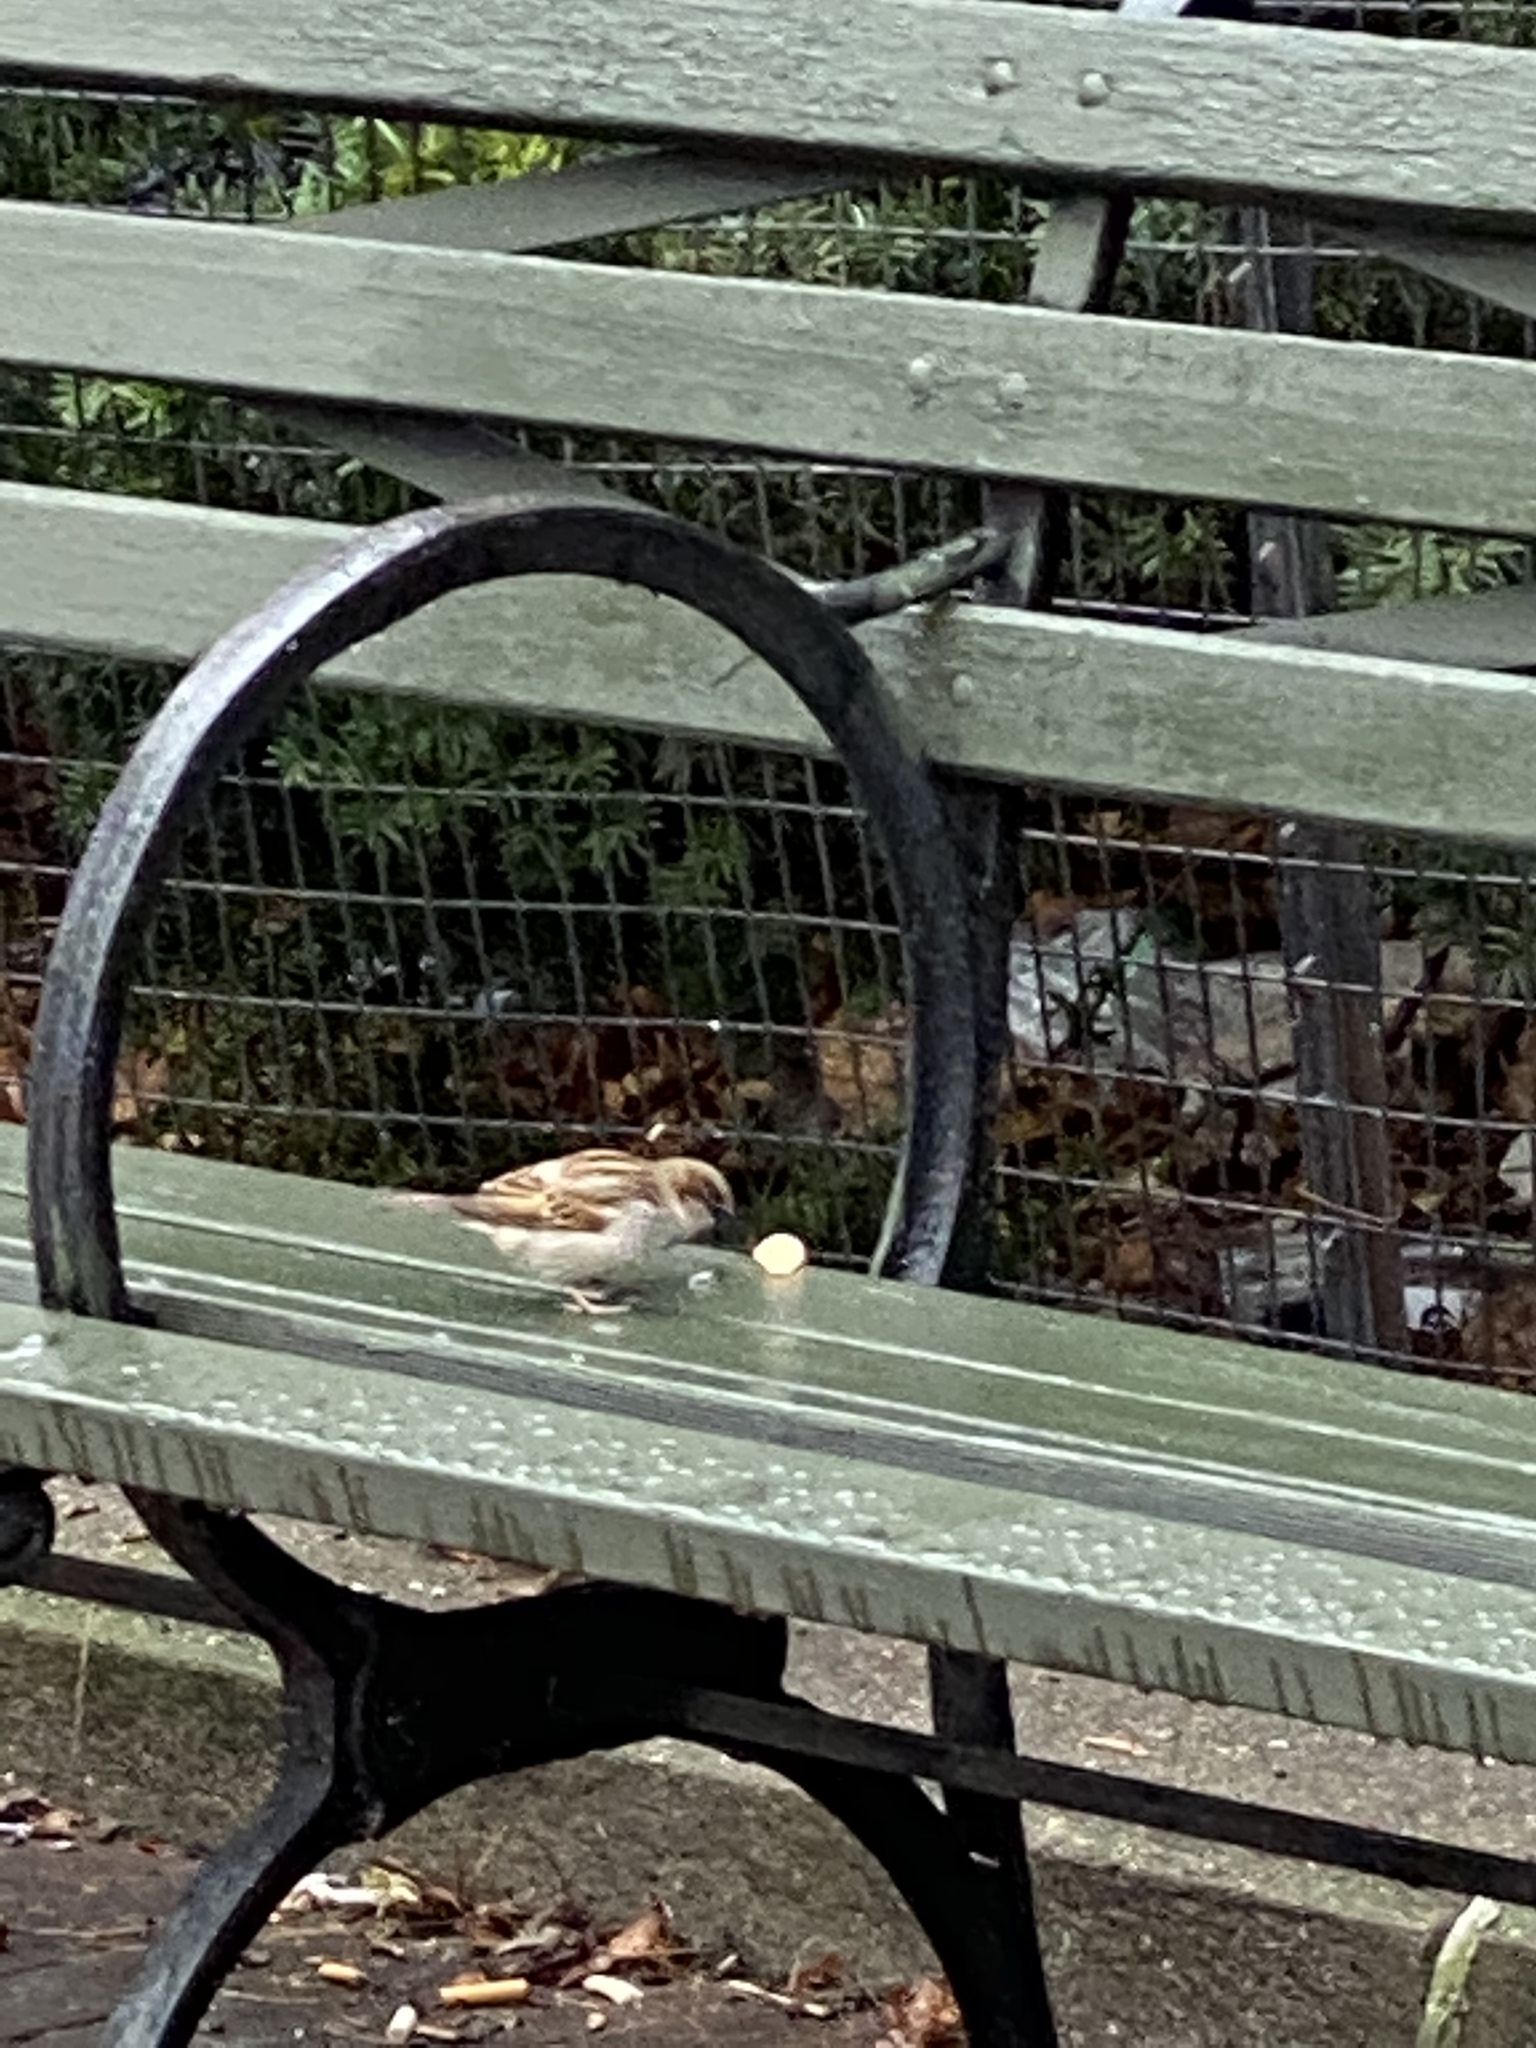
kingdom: Animalia
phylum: Chordata
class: Aves
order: Passeriformes
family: Passeridae
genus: Passer
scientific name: Passer domesticus
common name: House sparrow
